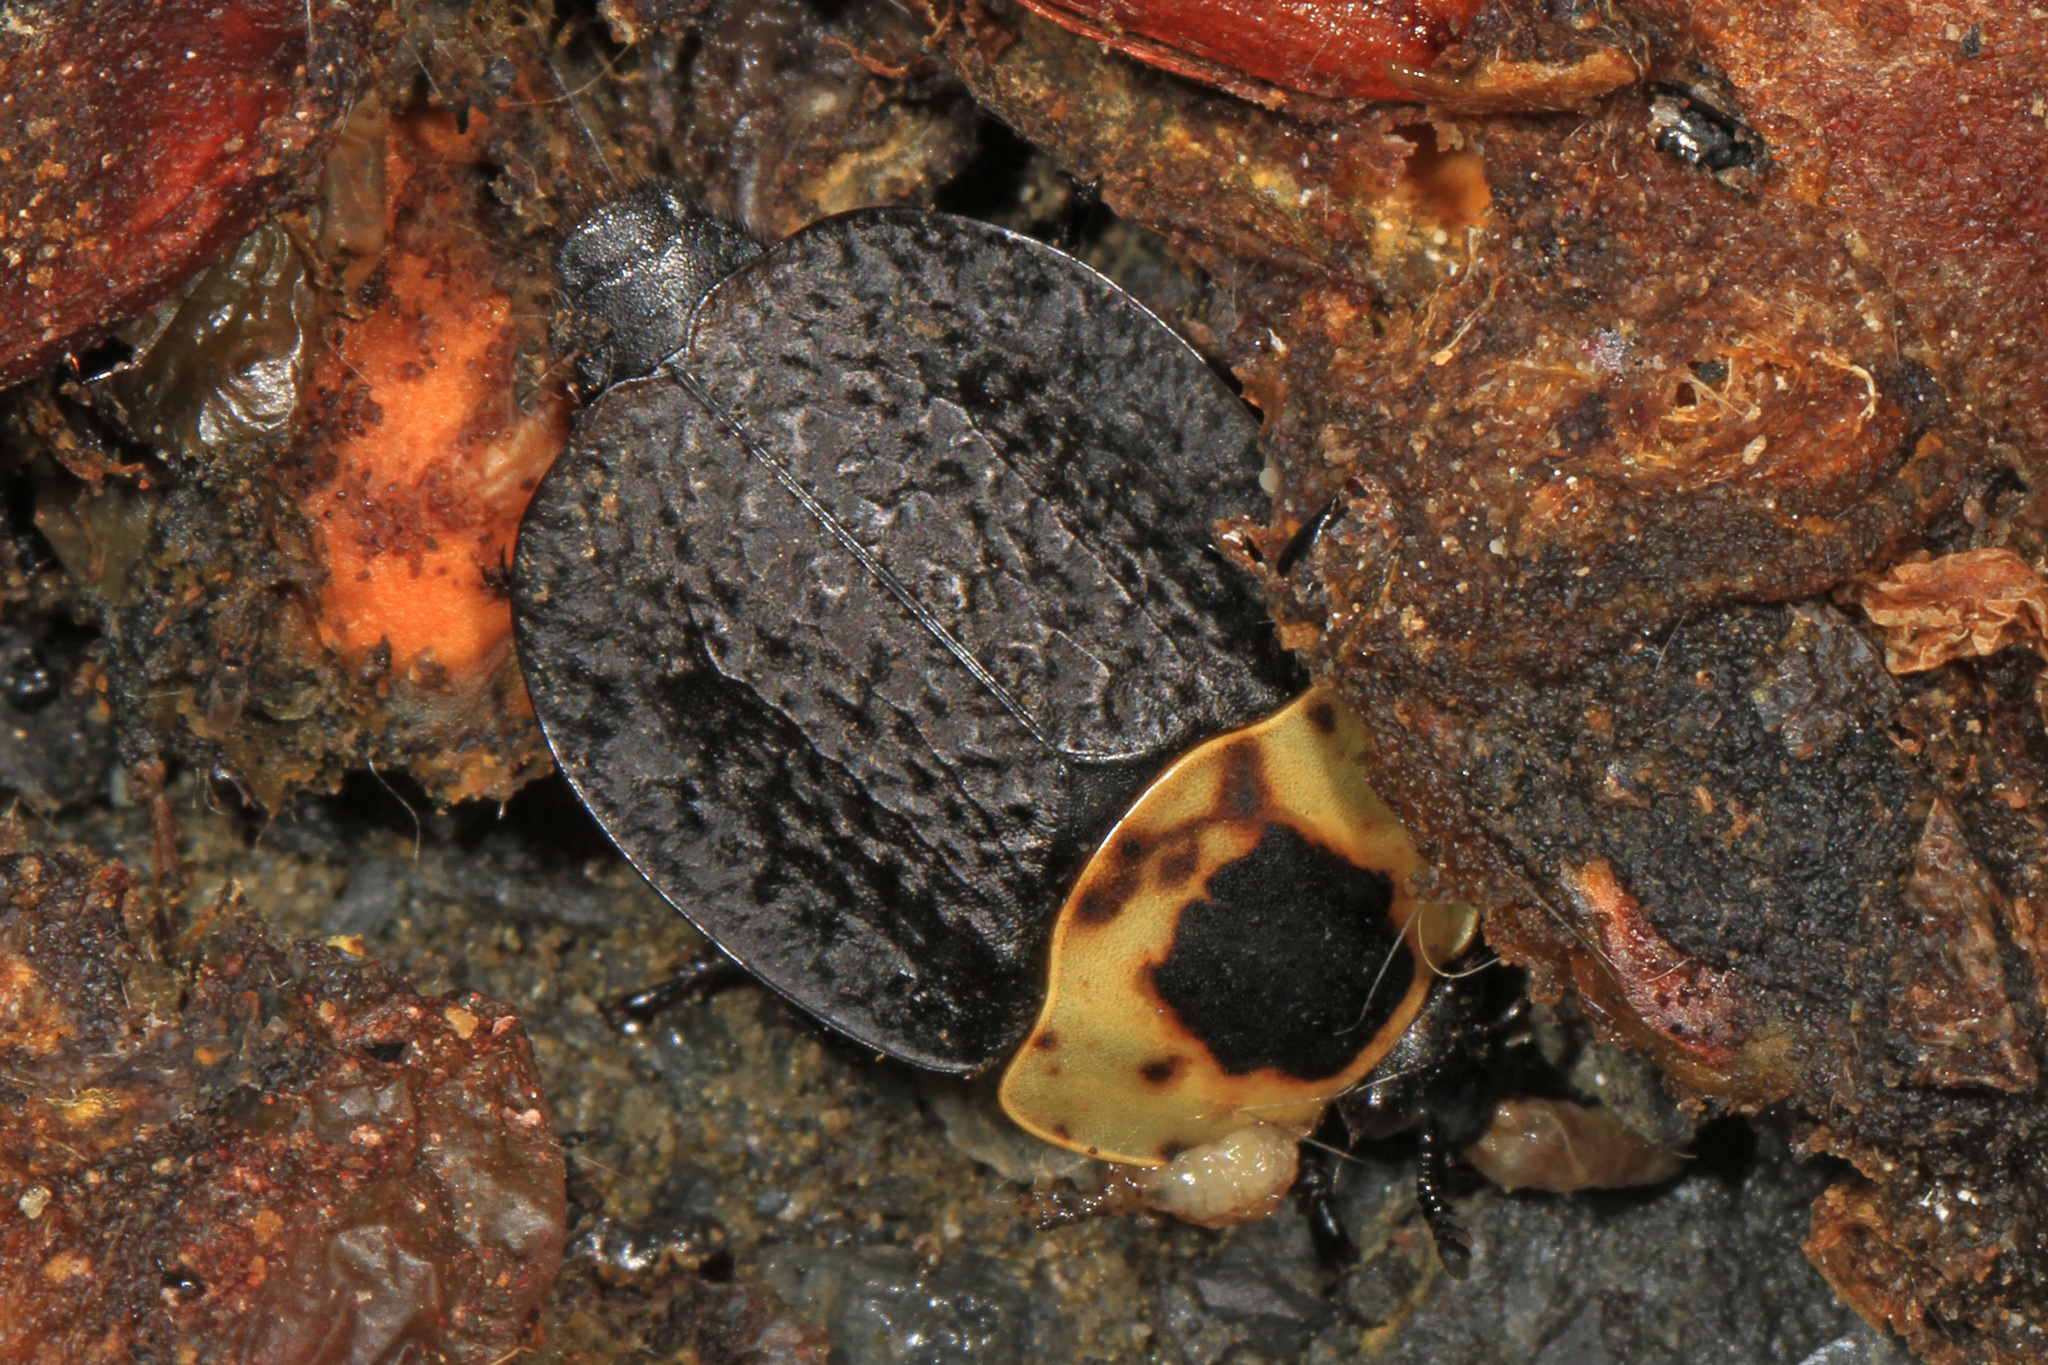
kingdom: Animalia
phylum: Arthropoda
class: Insecta
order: Coleoptera
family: Staphylinidae
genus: Necrophila
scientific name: Necrophila americana
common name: American carrion beetle
